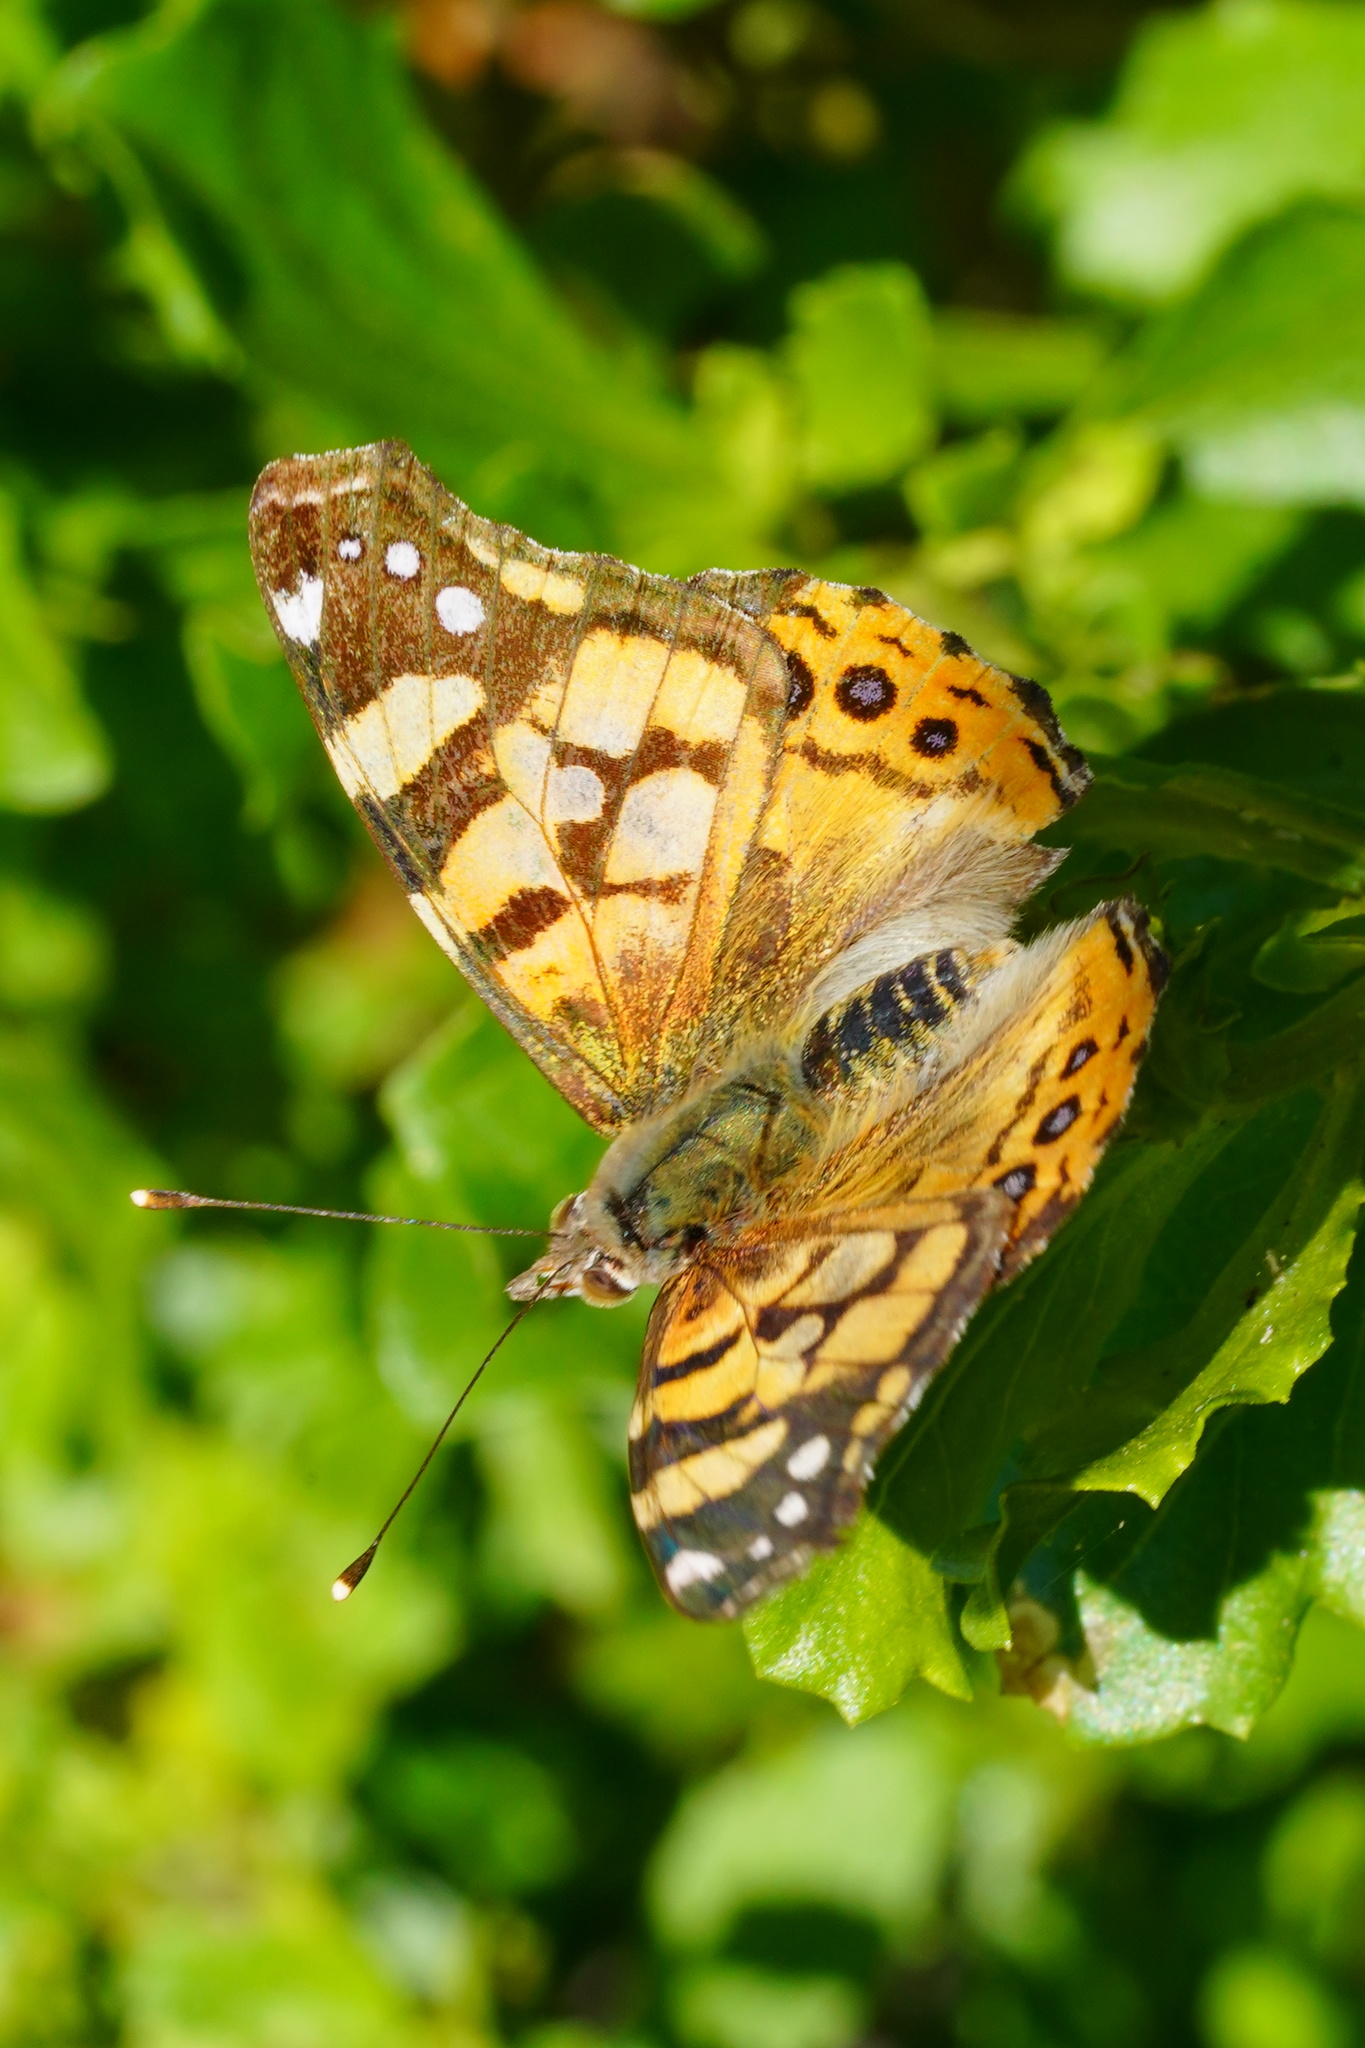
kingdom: Animalia
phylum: Arthropoda
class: Insecta
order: Lepidoptera
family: Nymphalidae
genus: Vanessa
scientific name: Vanessa annabella
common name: West coast lady
